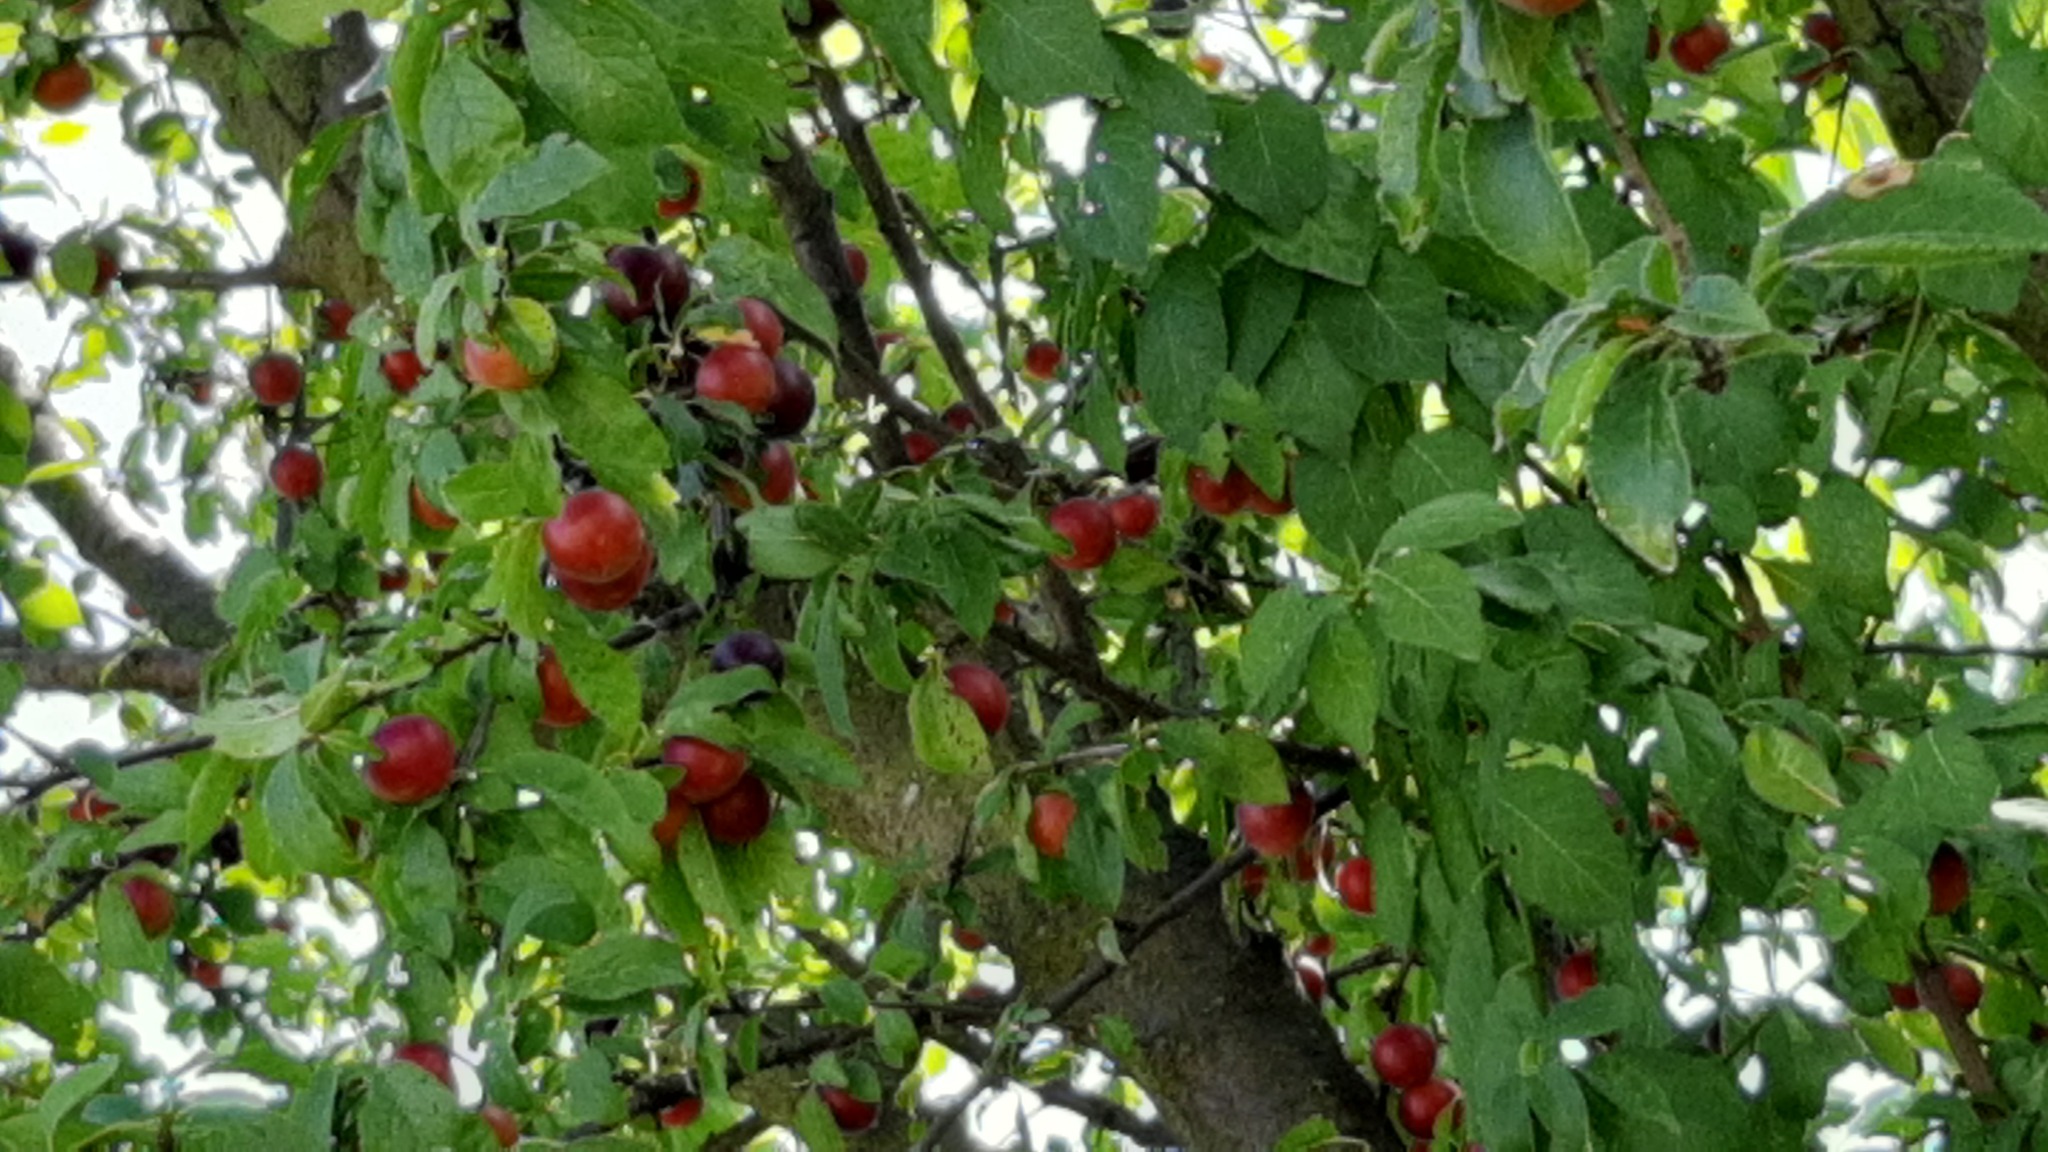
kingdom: Plantae
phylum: Tracheophyta
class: Magnoliopsida
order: Rosales
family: Rosaceae
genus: Prunus
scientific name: Prunus cerasifera
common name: Cherry plum
